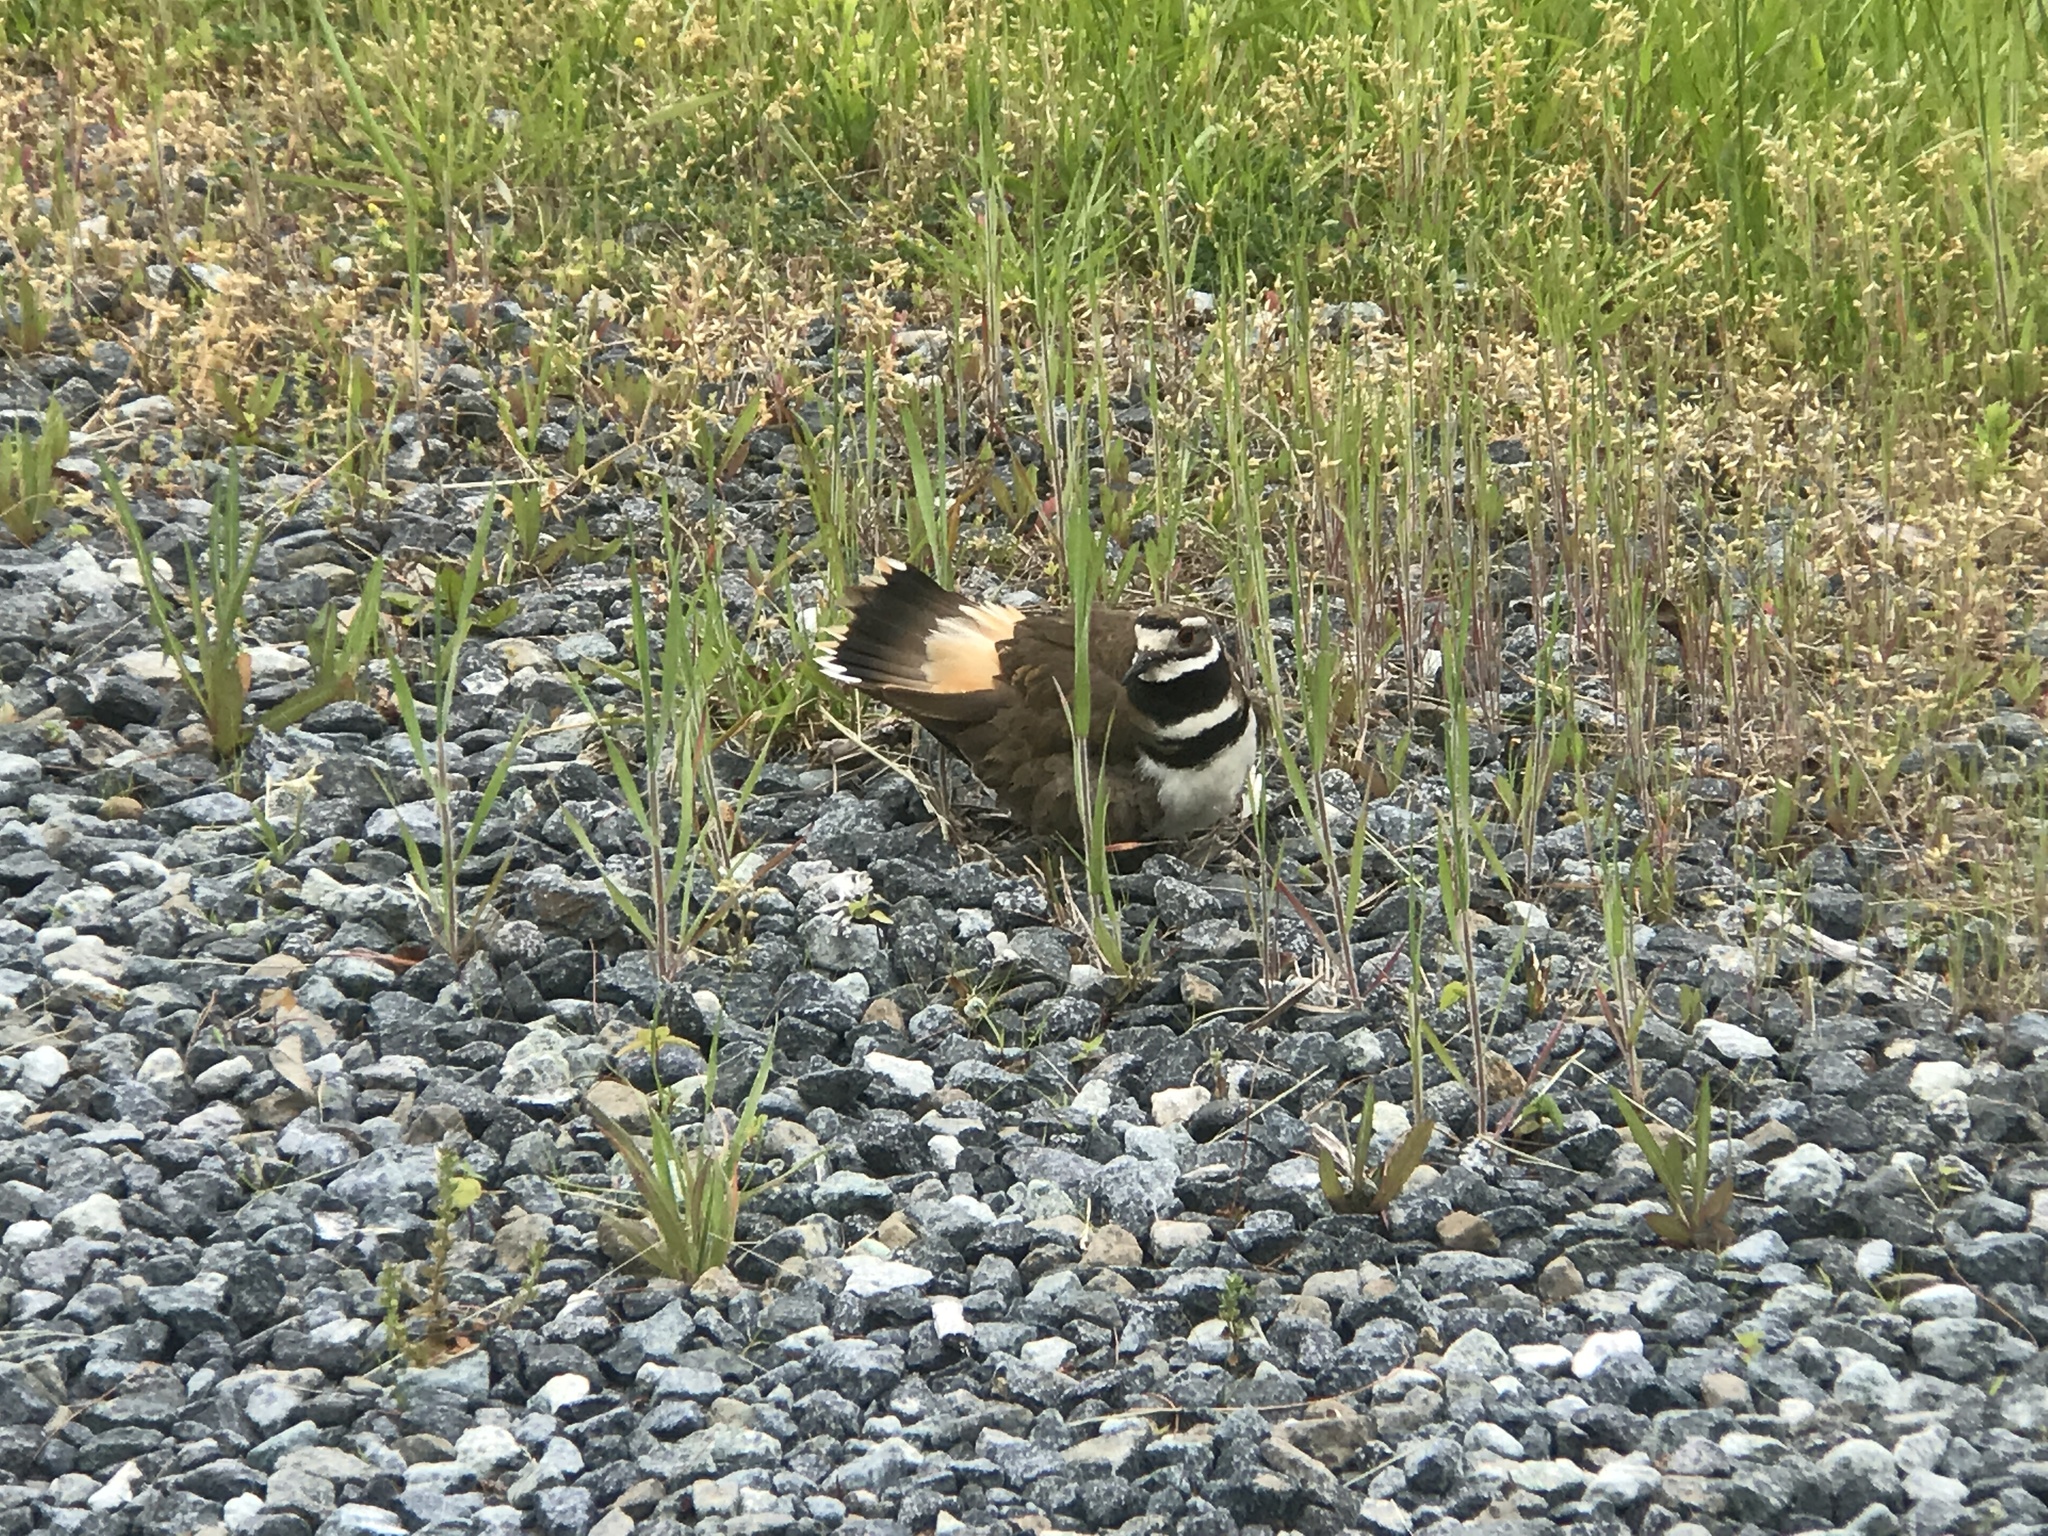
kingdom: Animalia
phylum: Chordata
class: Aves
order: Charadriiformes
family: Charadriidae
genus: Charadrius
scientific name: Charadrius vociferus
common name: Killdeer
